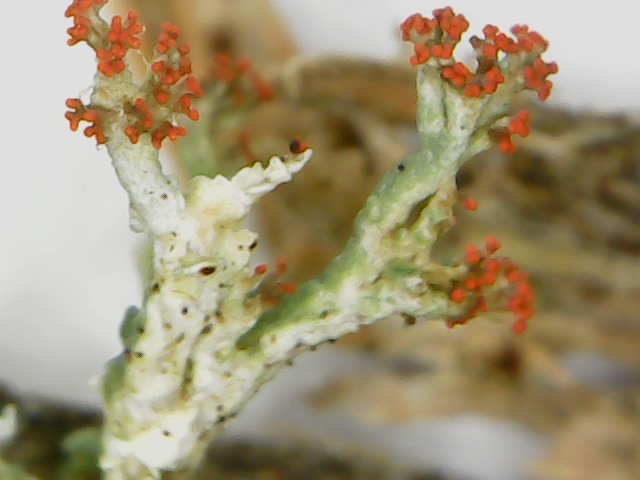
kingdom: Fungi
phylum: Ascomycota
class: Lecanoromycetes
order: Lecanorales
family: Cladoniaceae
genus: Cladonia
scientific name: Cladonia cristatella
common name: British soldier lichen
